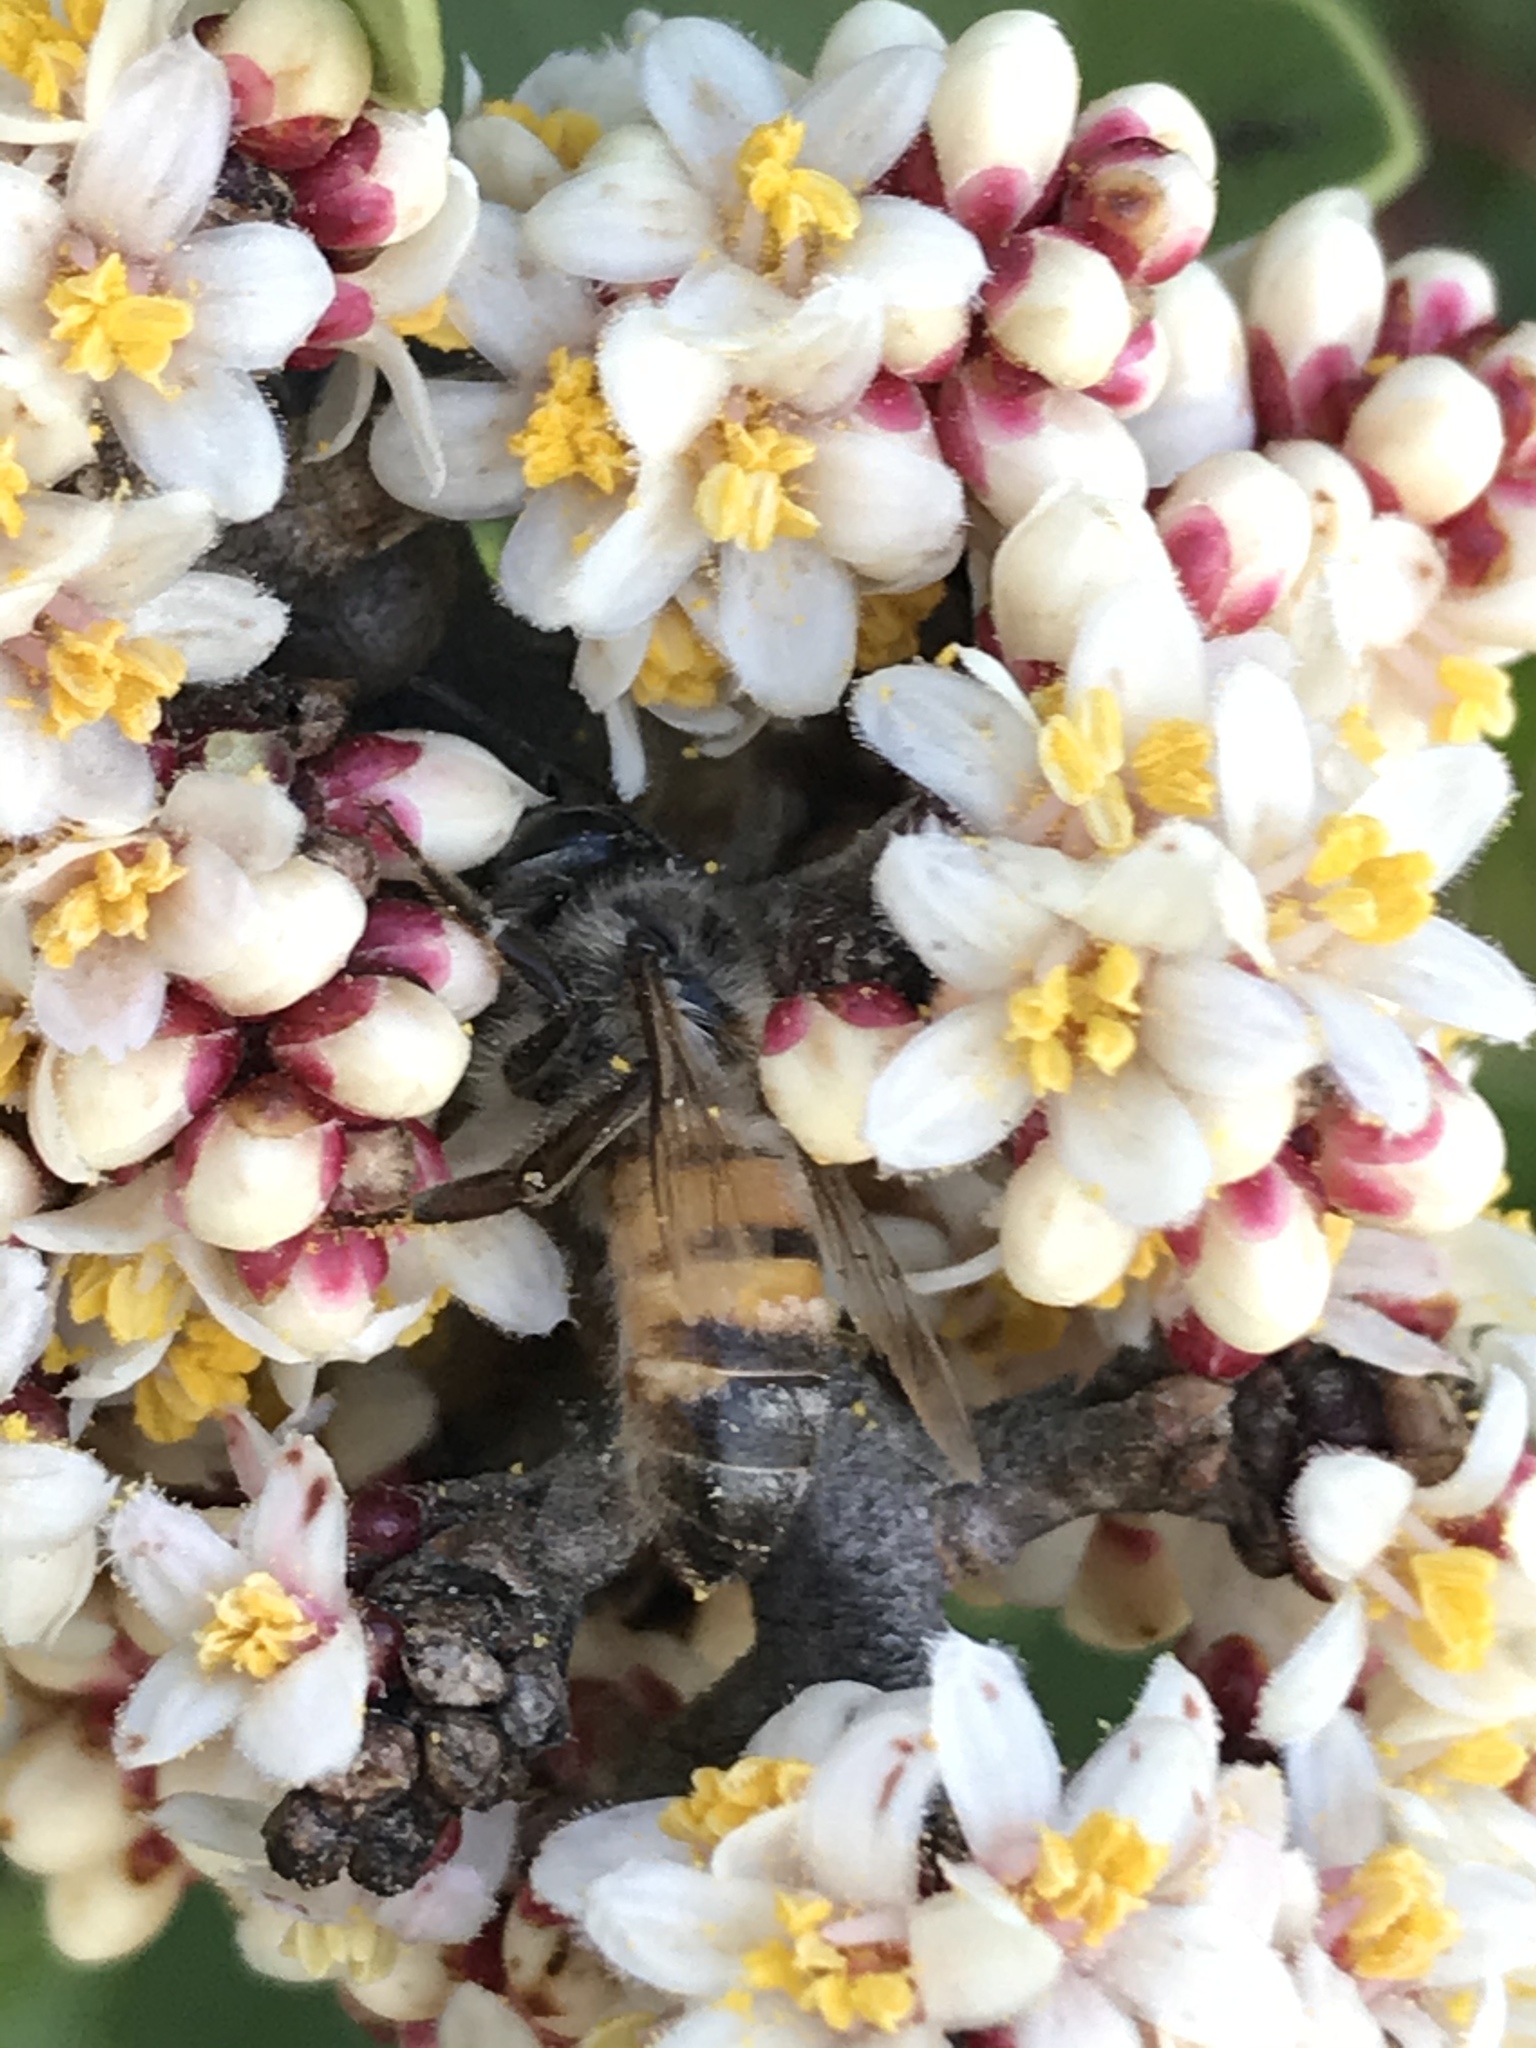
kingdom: Animalia
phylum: Arthropoda
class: Insecta
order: Hymenoptera
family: Apidae
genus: Apis
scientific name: Apis mellifera
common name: Honey bee
